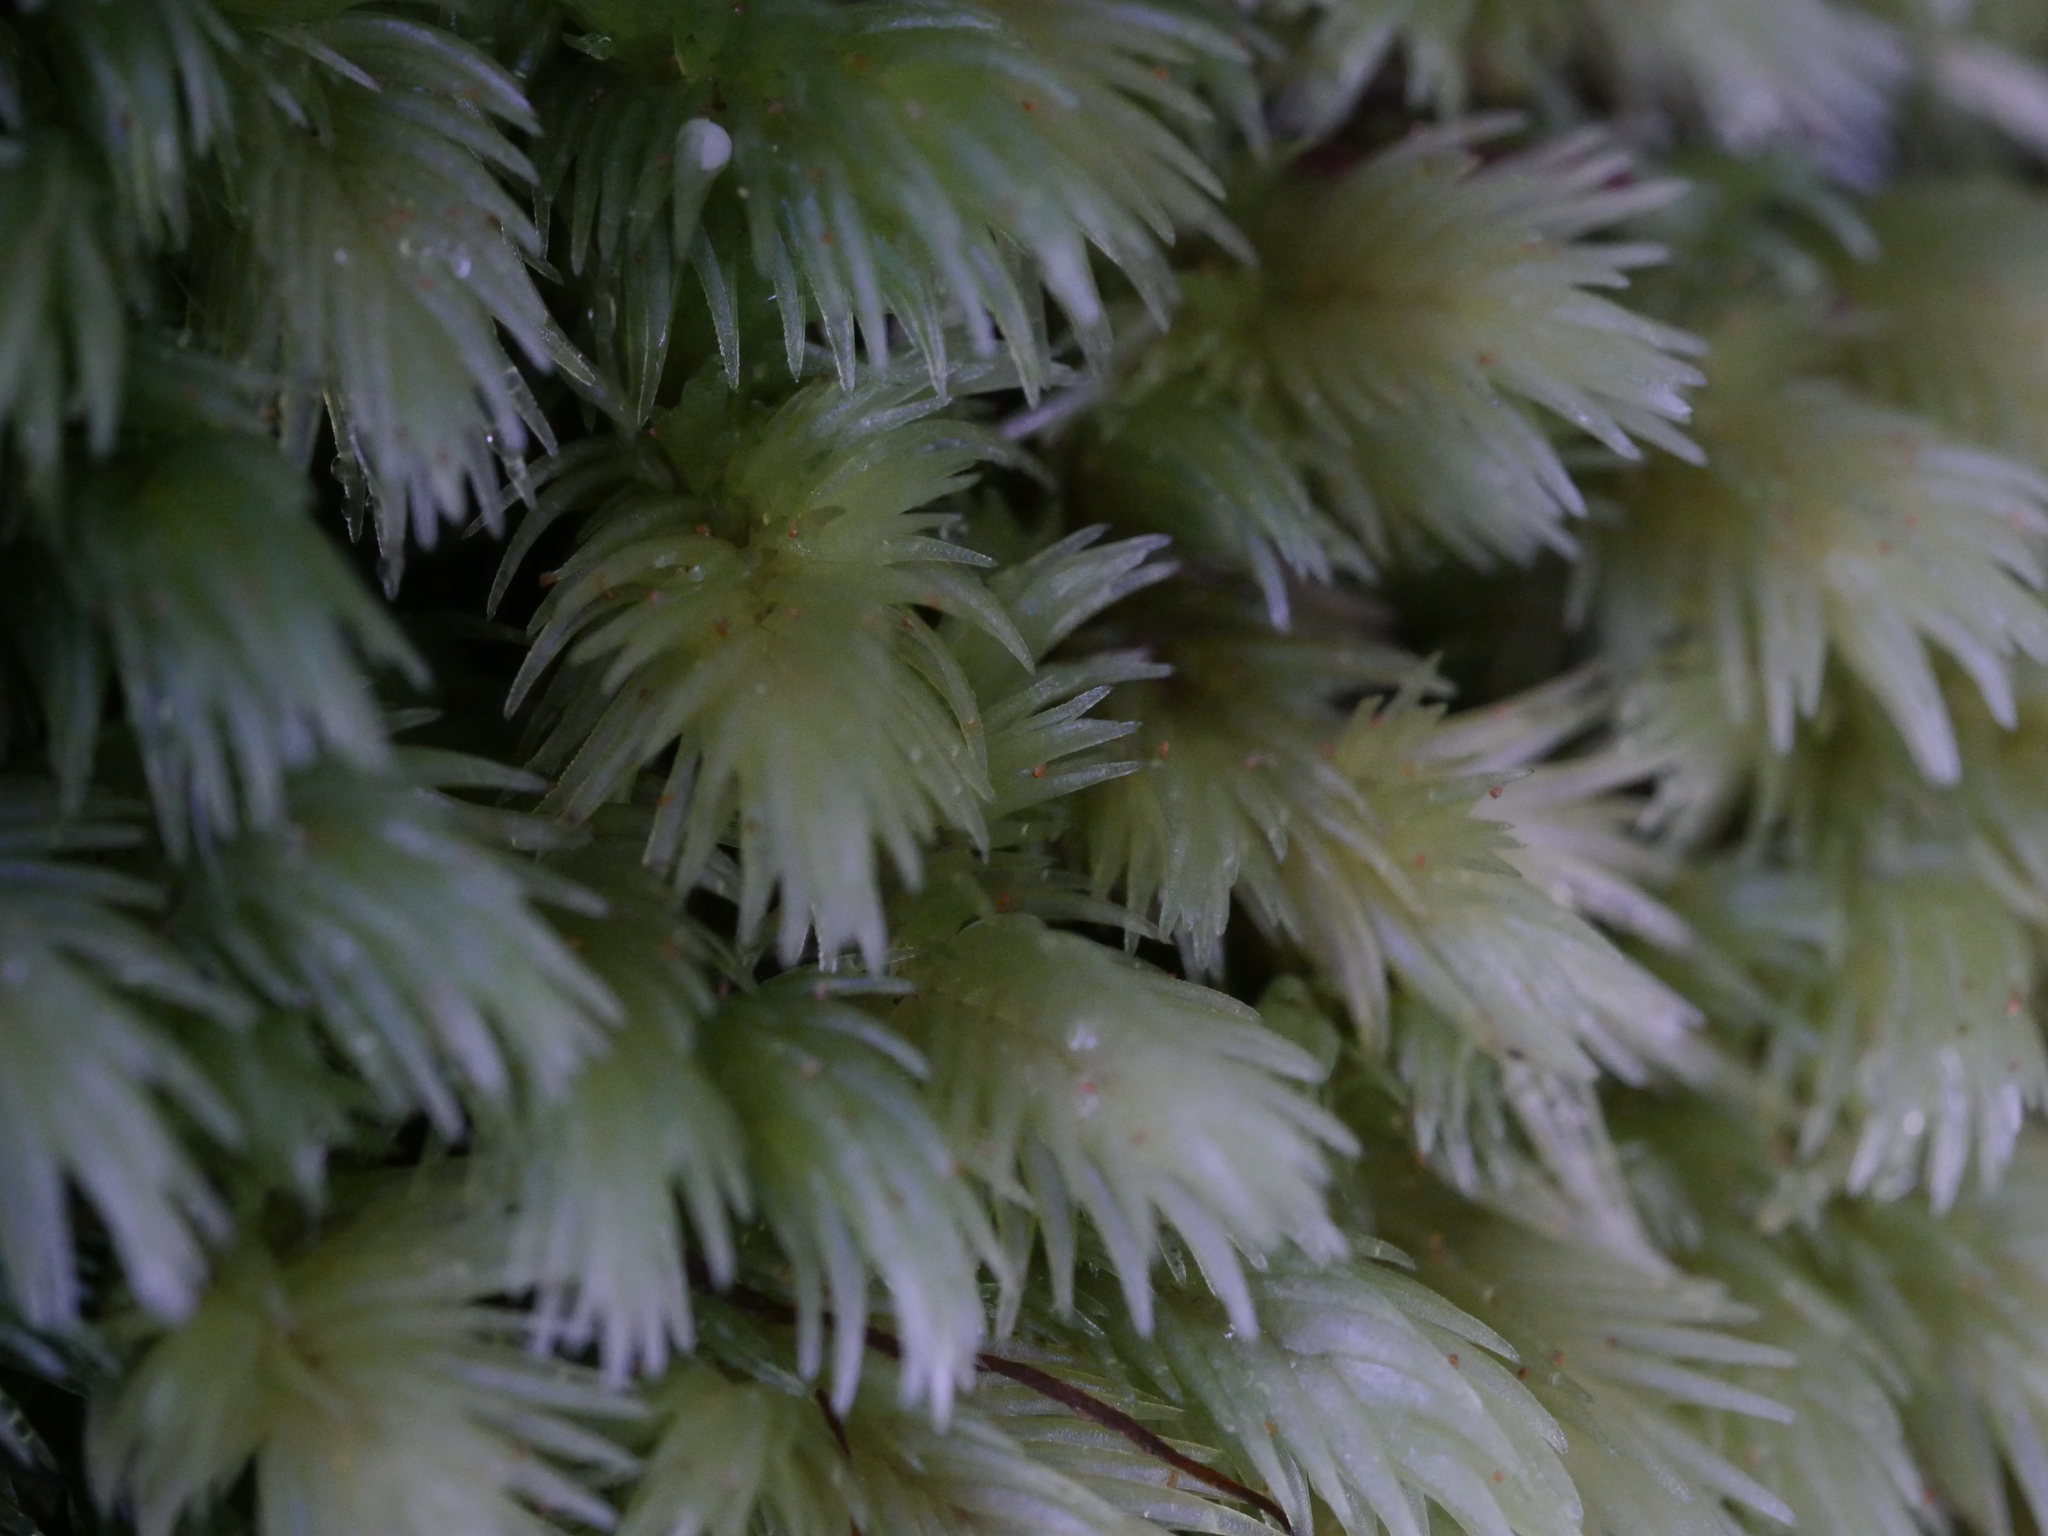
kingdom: Plantae
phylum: Bryophyta
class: Bryopsida
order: Dicranales
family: Leucobryaceae
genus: Leucobryum
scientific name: Leucobryum javense
